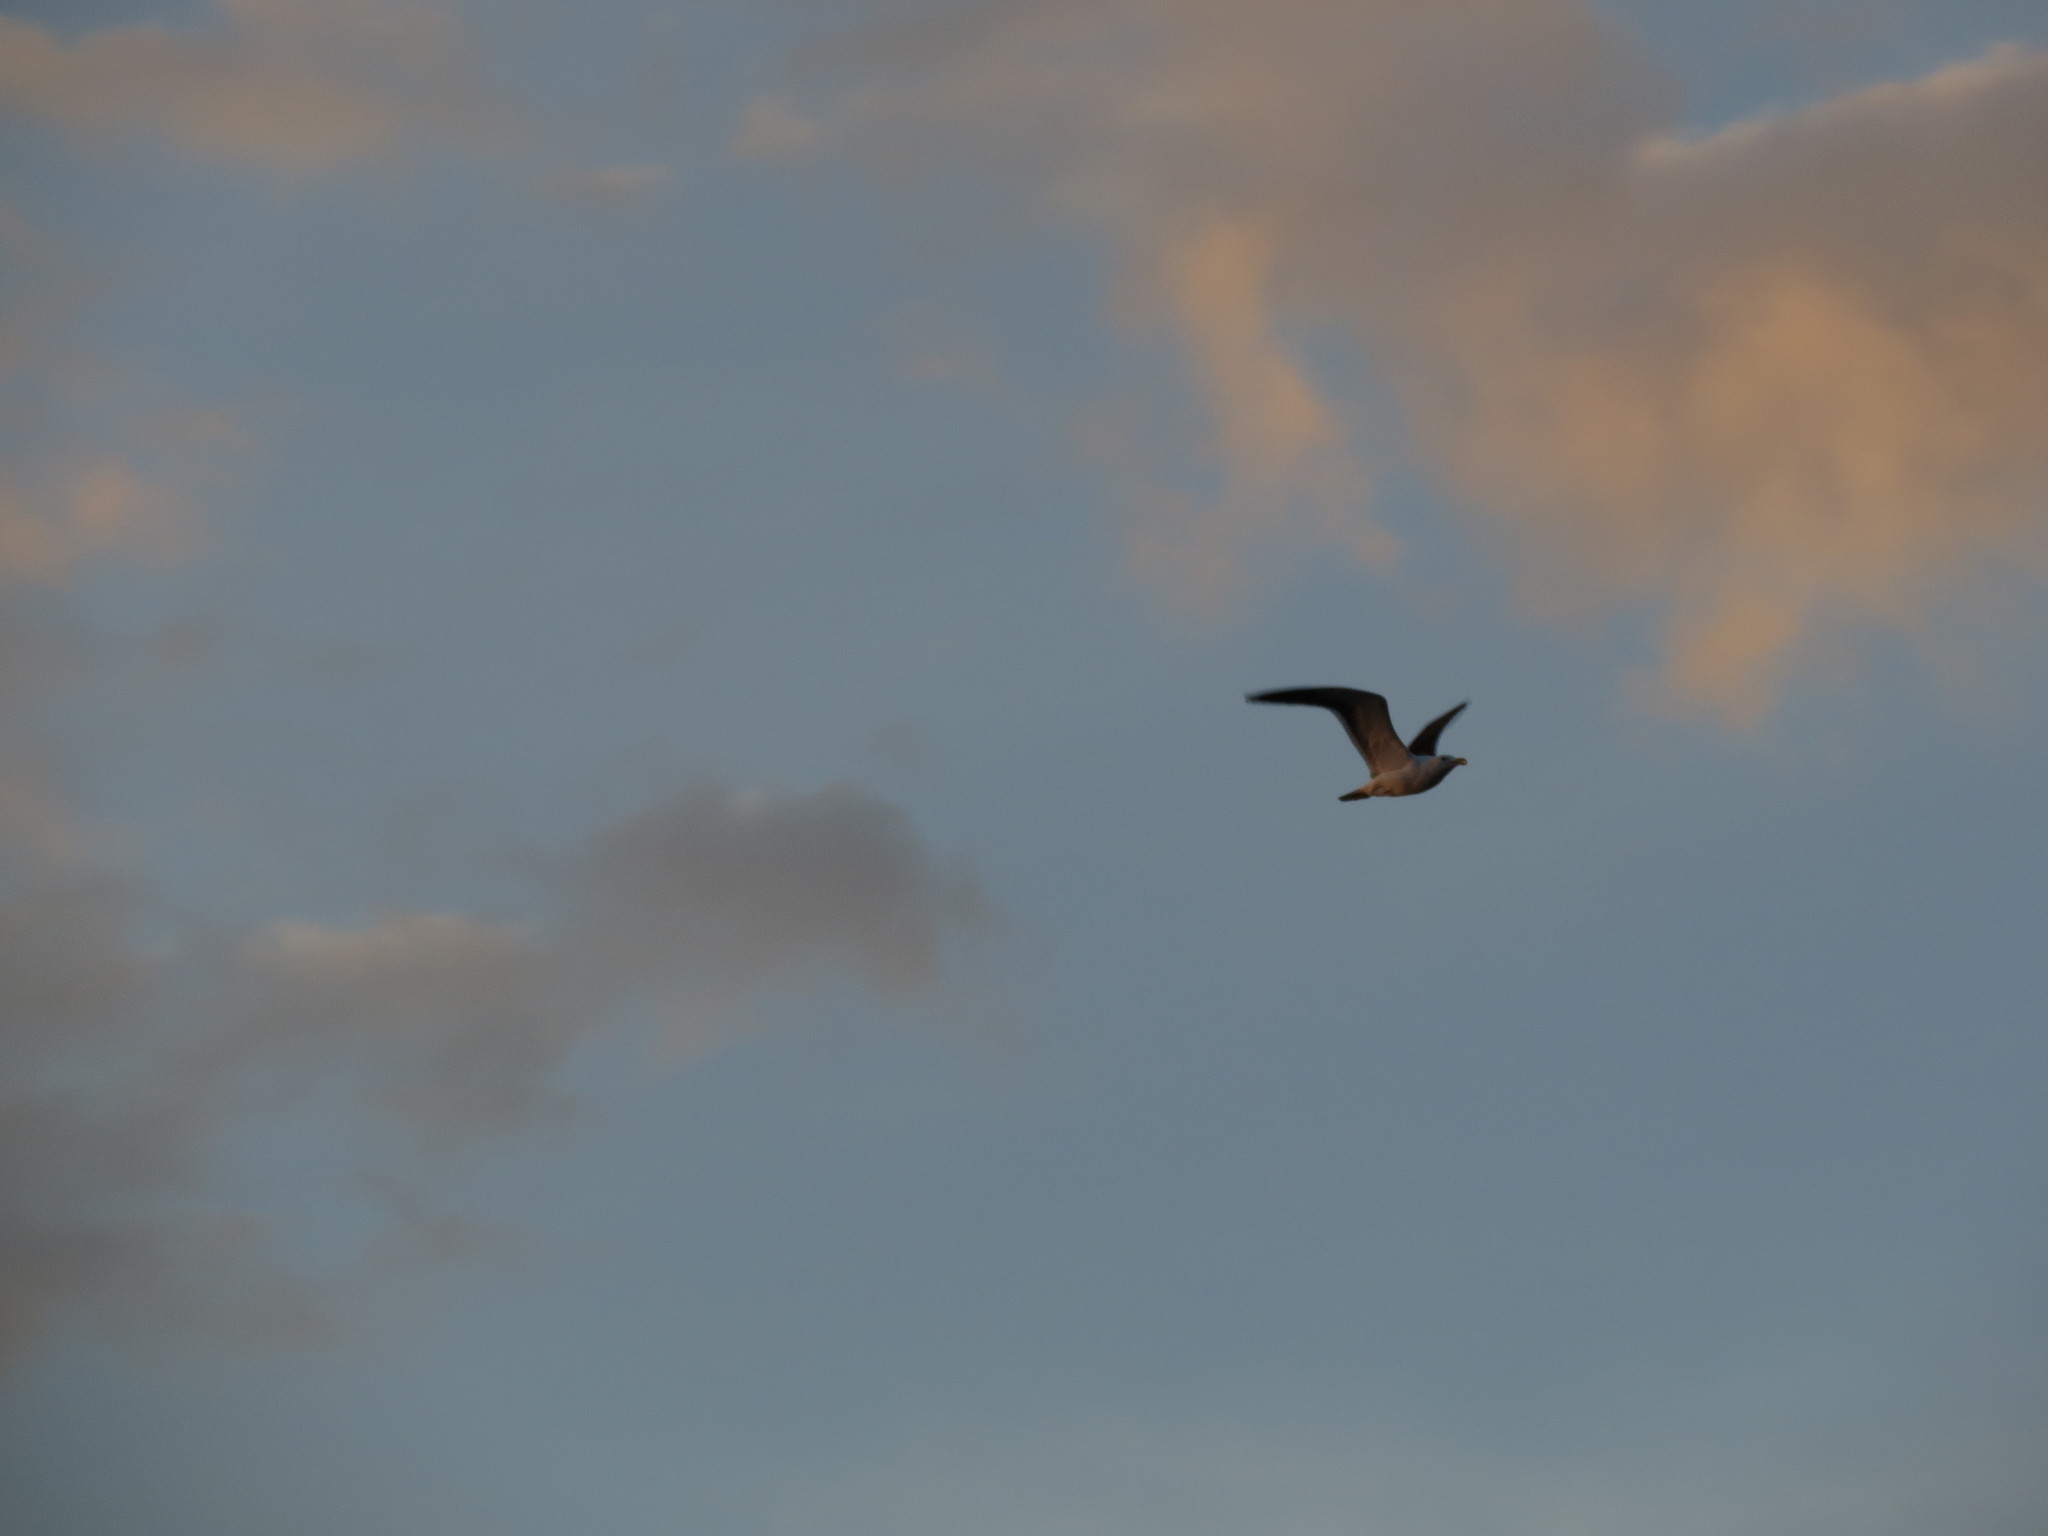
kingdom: Animalia
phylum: Chordata
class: Aves
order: Charadriiformes
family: Laridae
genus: Larus
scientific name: Larus dominicanus
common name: Kelp gull
